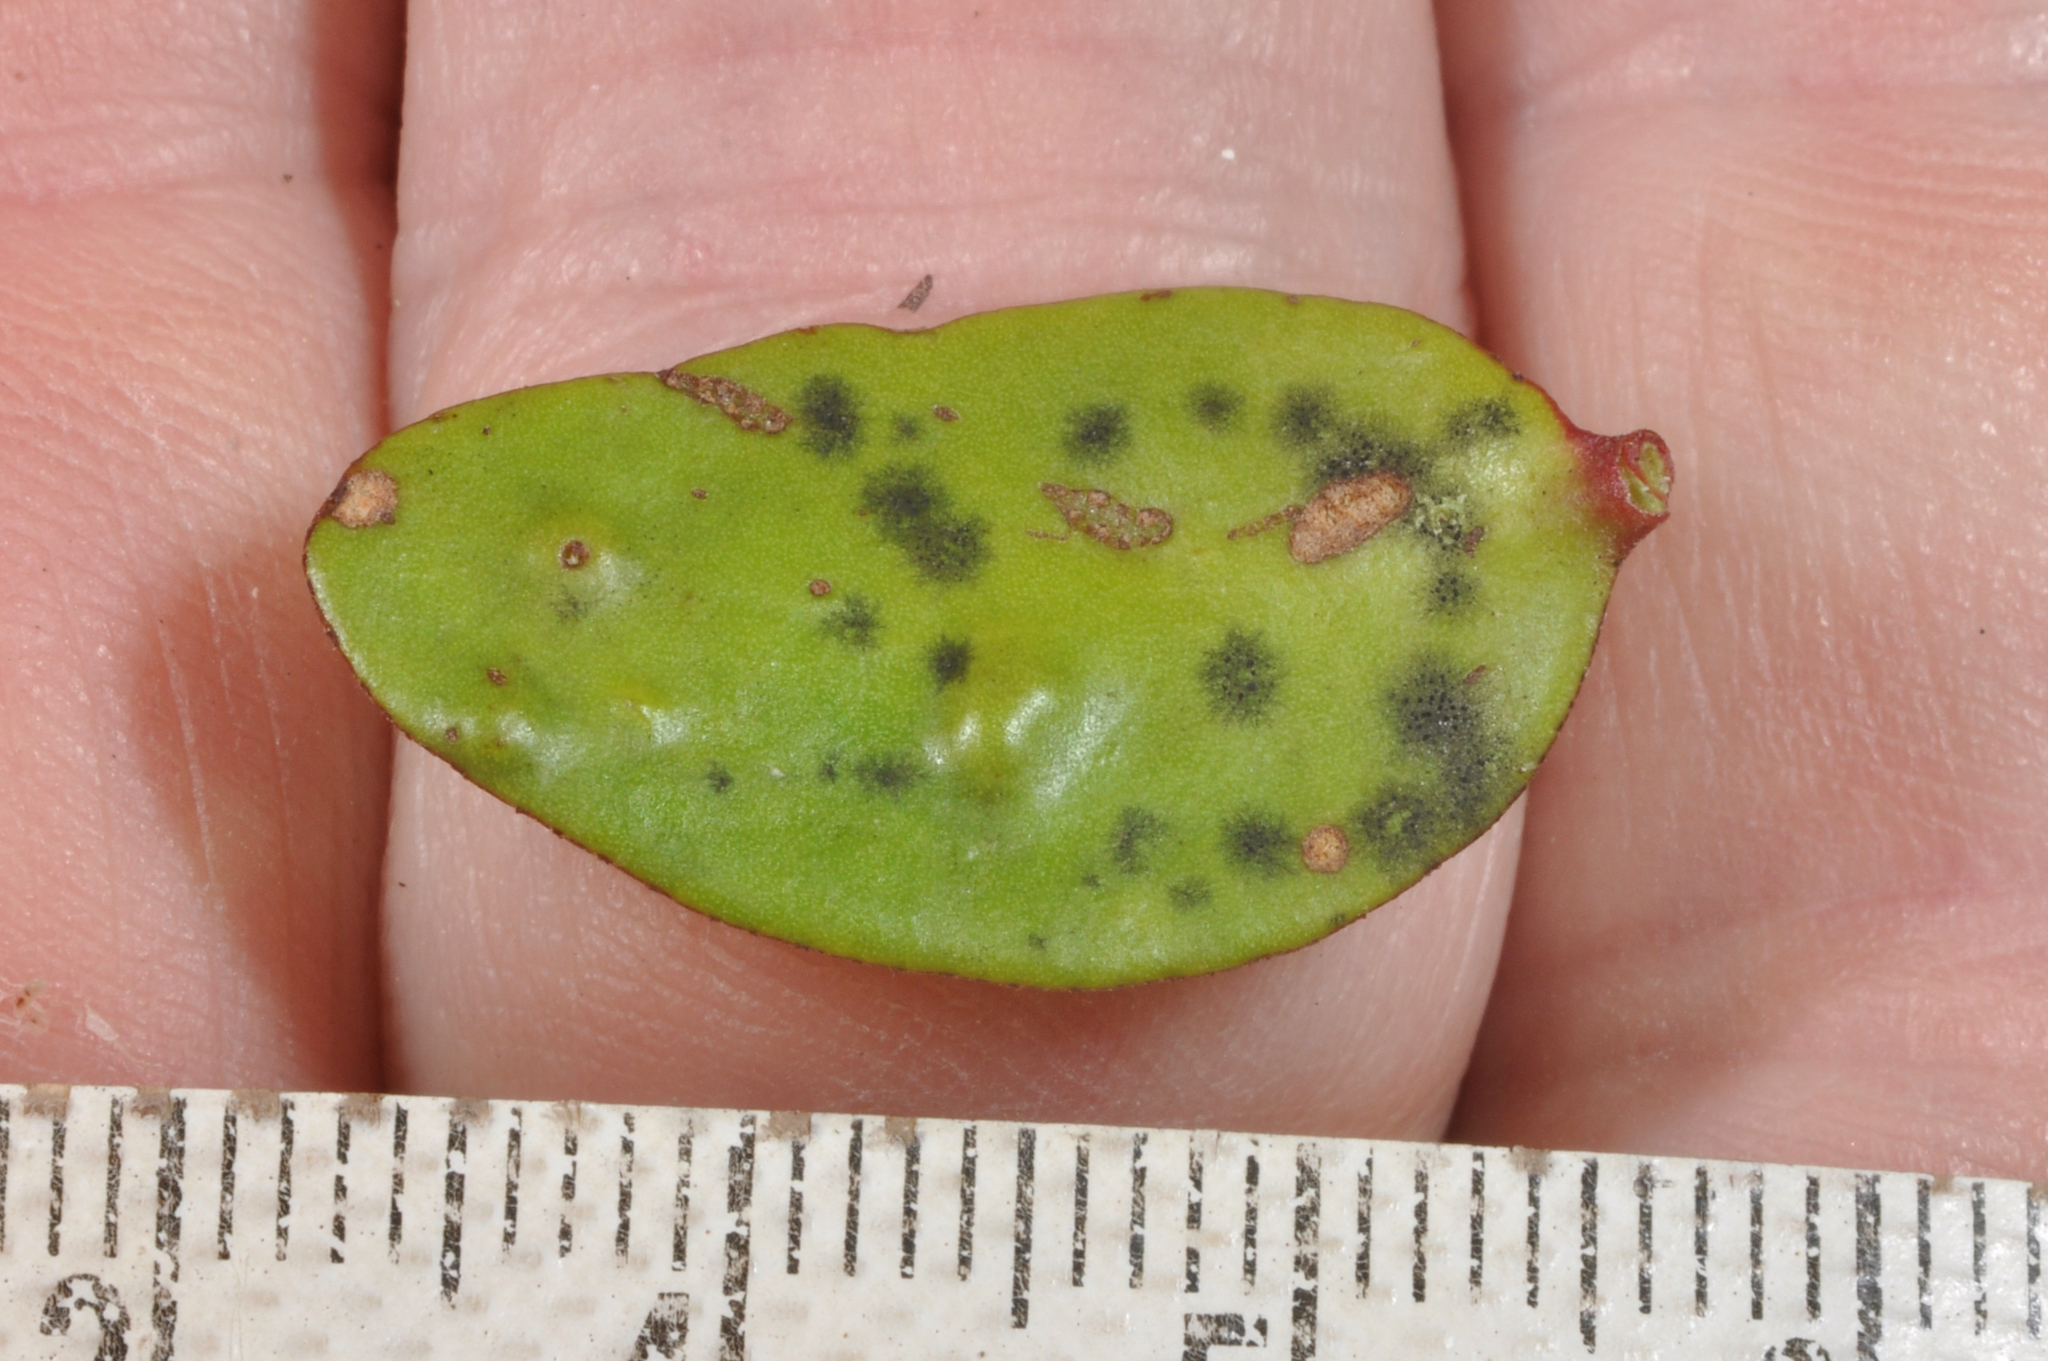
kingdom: Plantae
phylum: Tracheophyta
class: Magnoliopsida
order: Santalales
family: Loranthaceae
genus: Peraxilla
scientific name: Peraxilla tetrapetala
